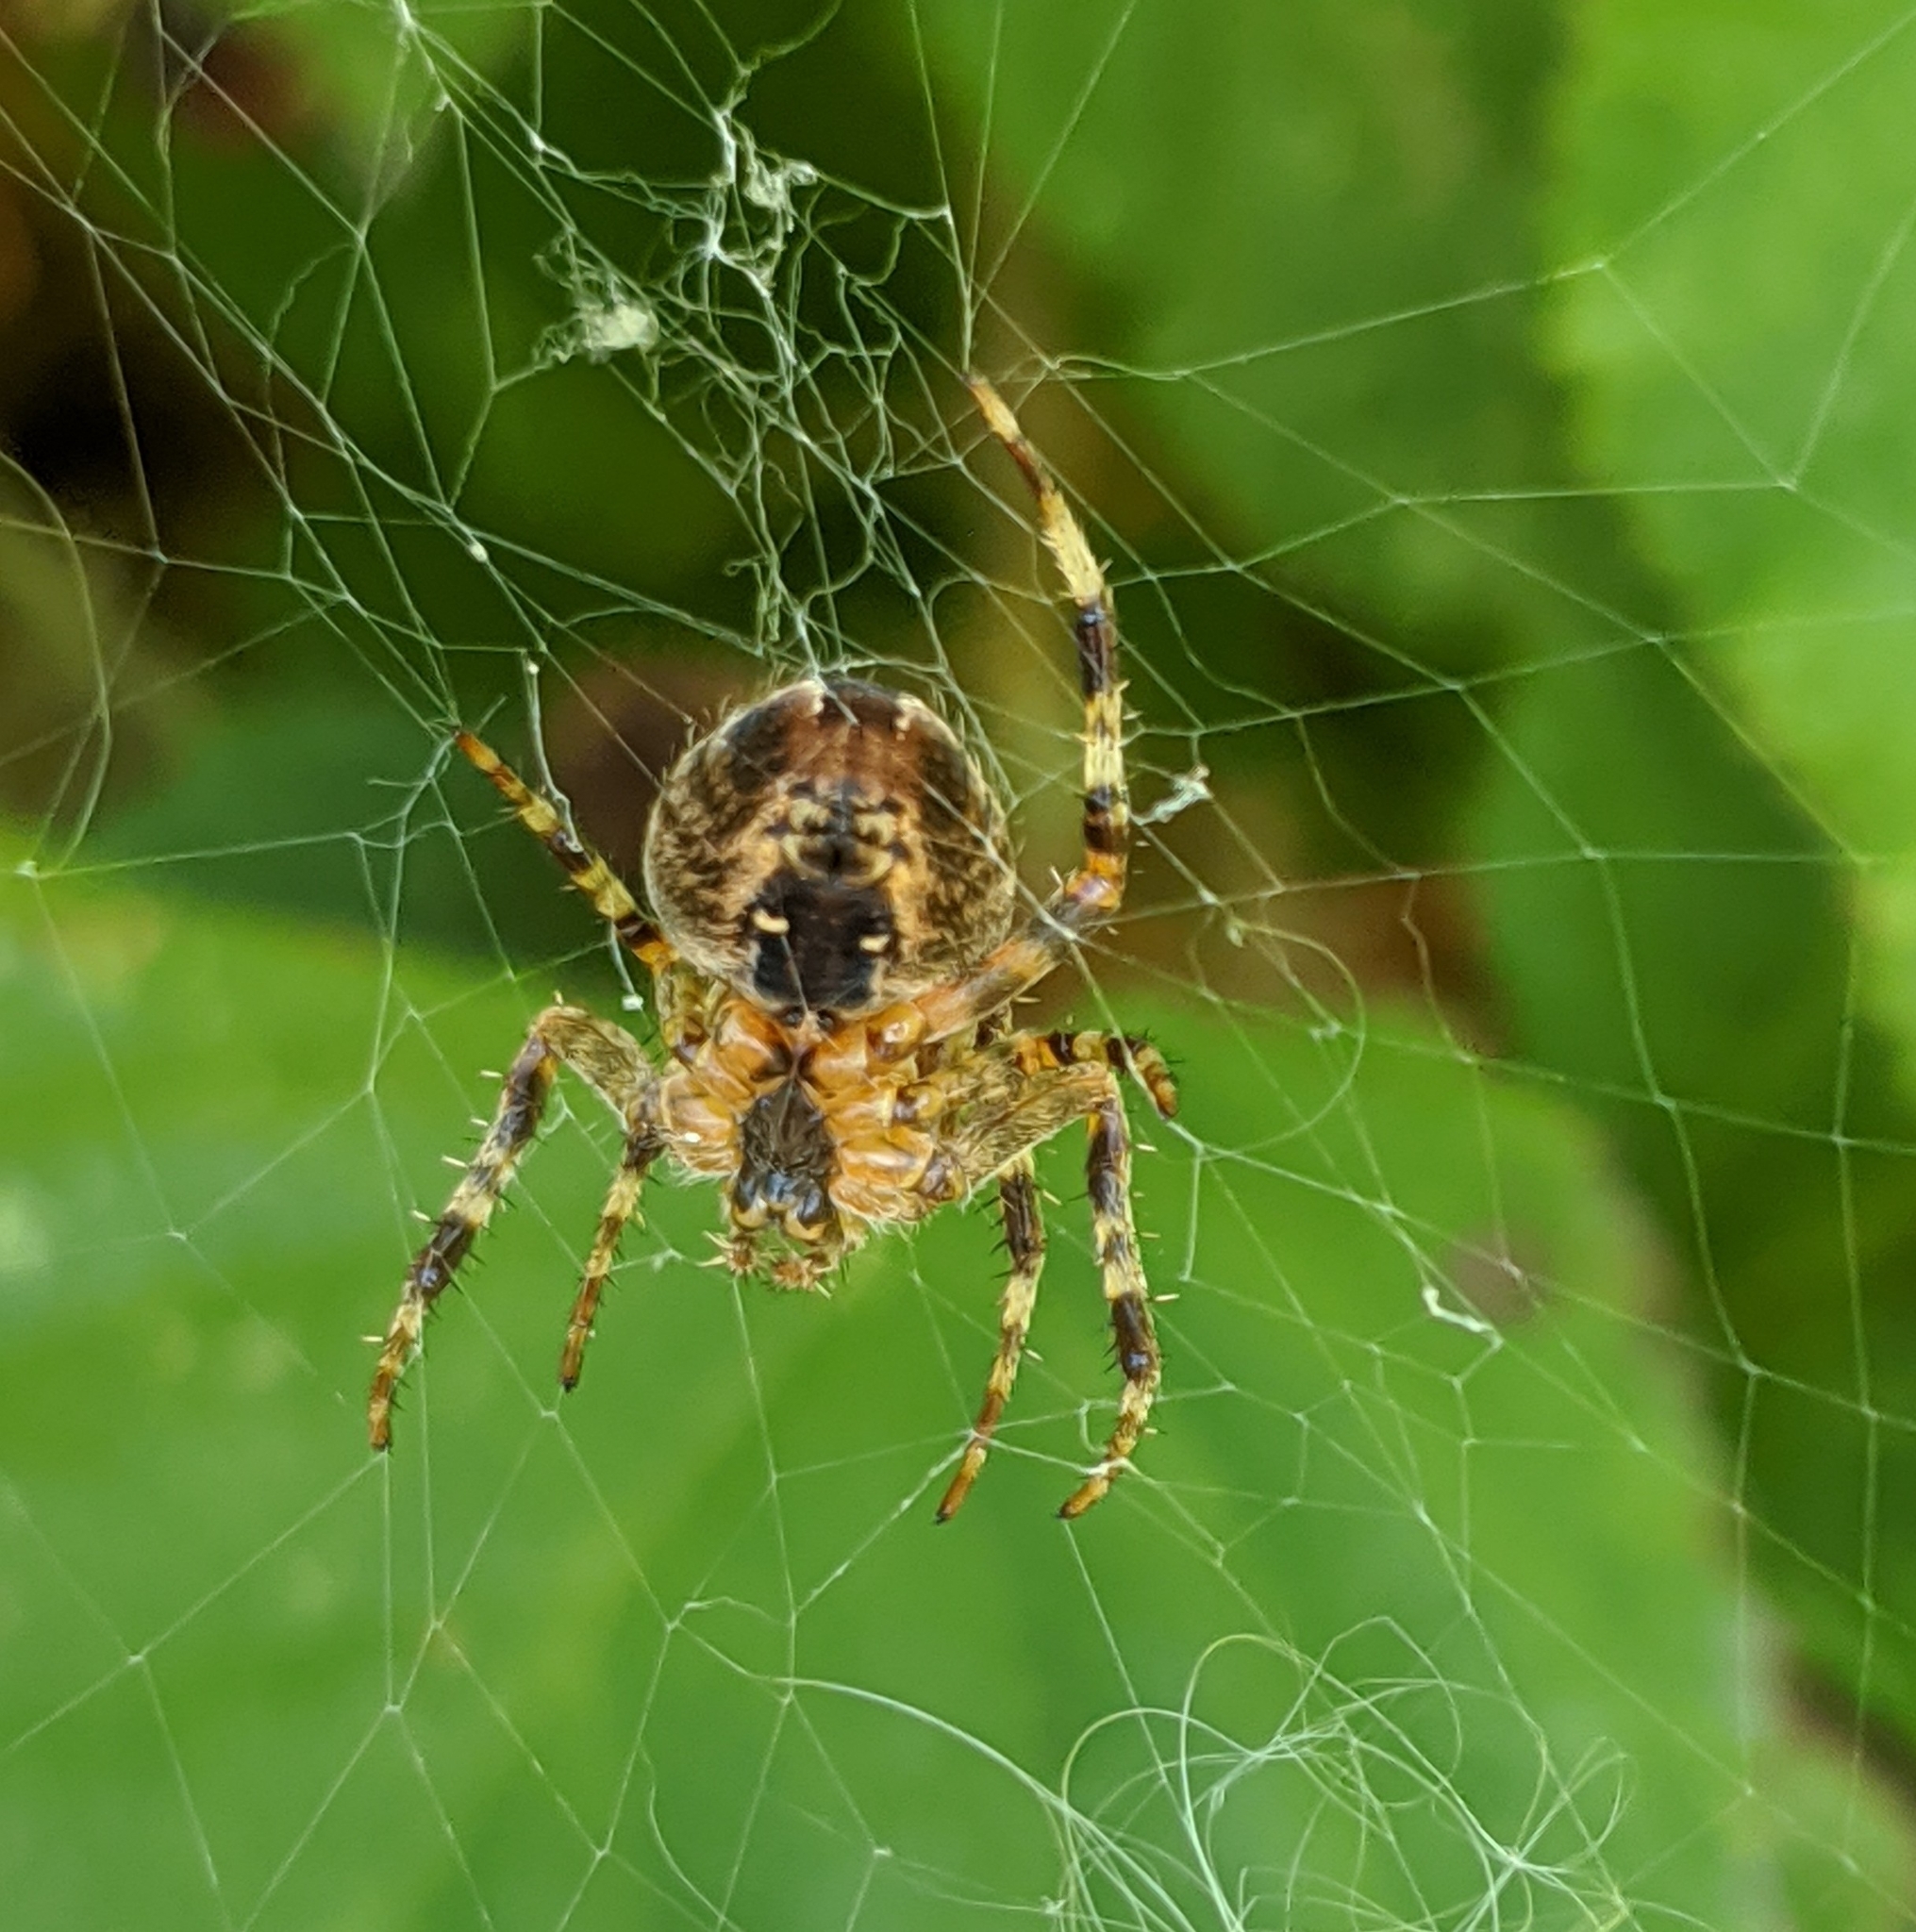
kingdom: Animalia
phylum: Arthropoda
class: Arachnida
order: Araneae
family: Araneidae
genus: Araneus
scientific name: Araneus diadematus
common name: Cross orbweaver
